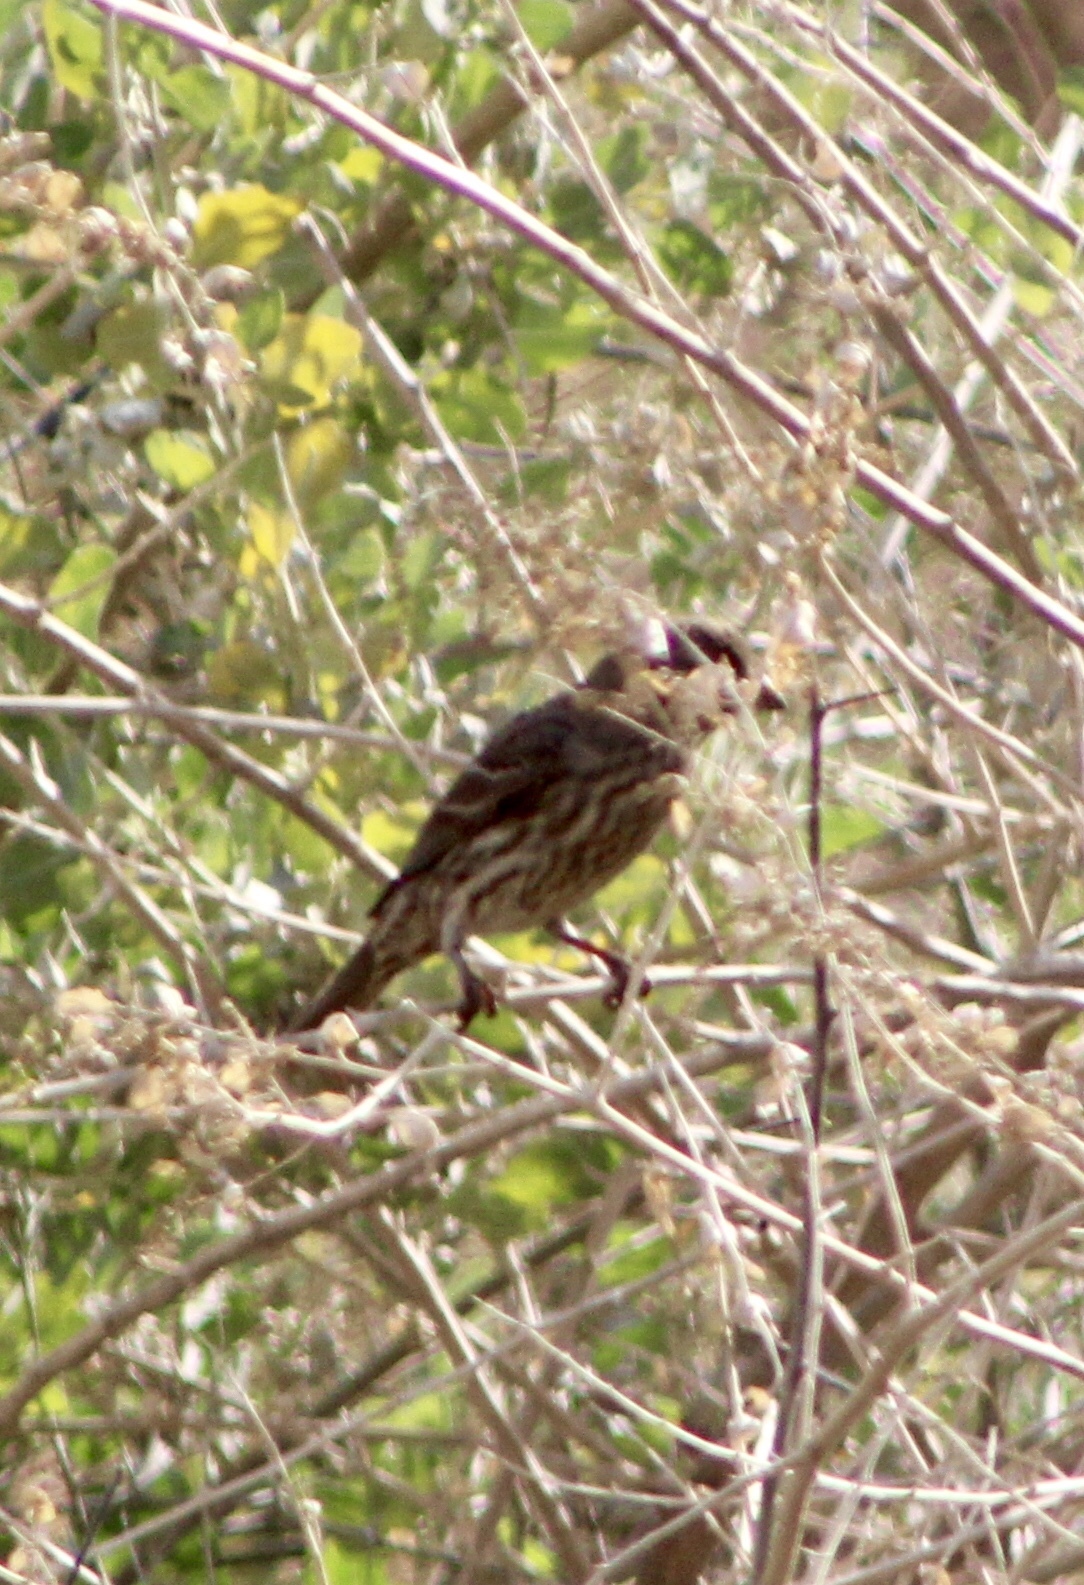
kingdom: Animalia
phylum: Chordata
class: Aves
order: Passeriformes
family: Fringillidae
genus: Haemorhous
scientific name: Haemorhous mexicanus
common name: House finch
